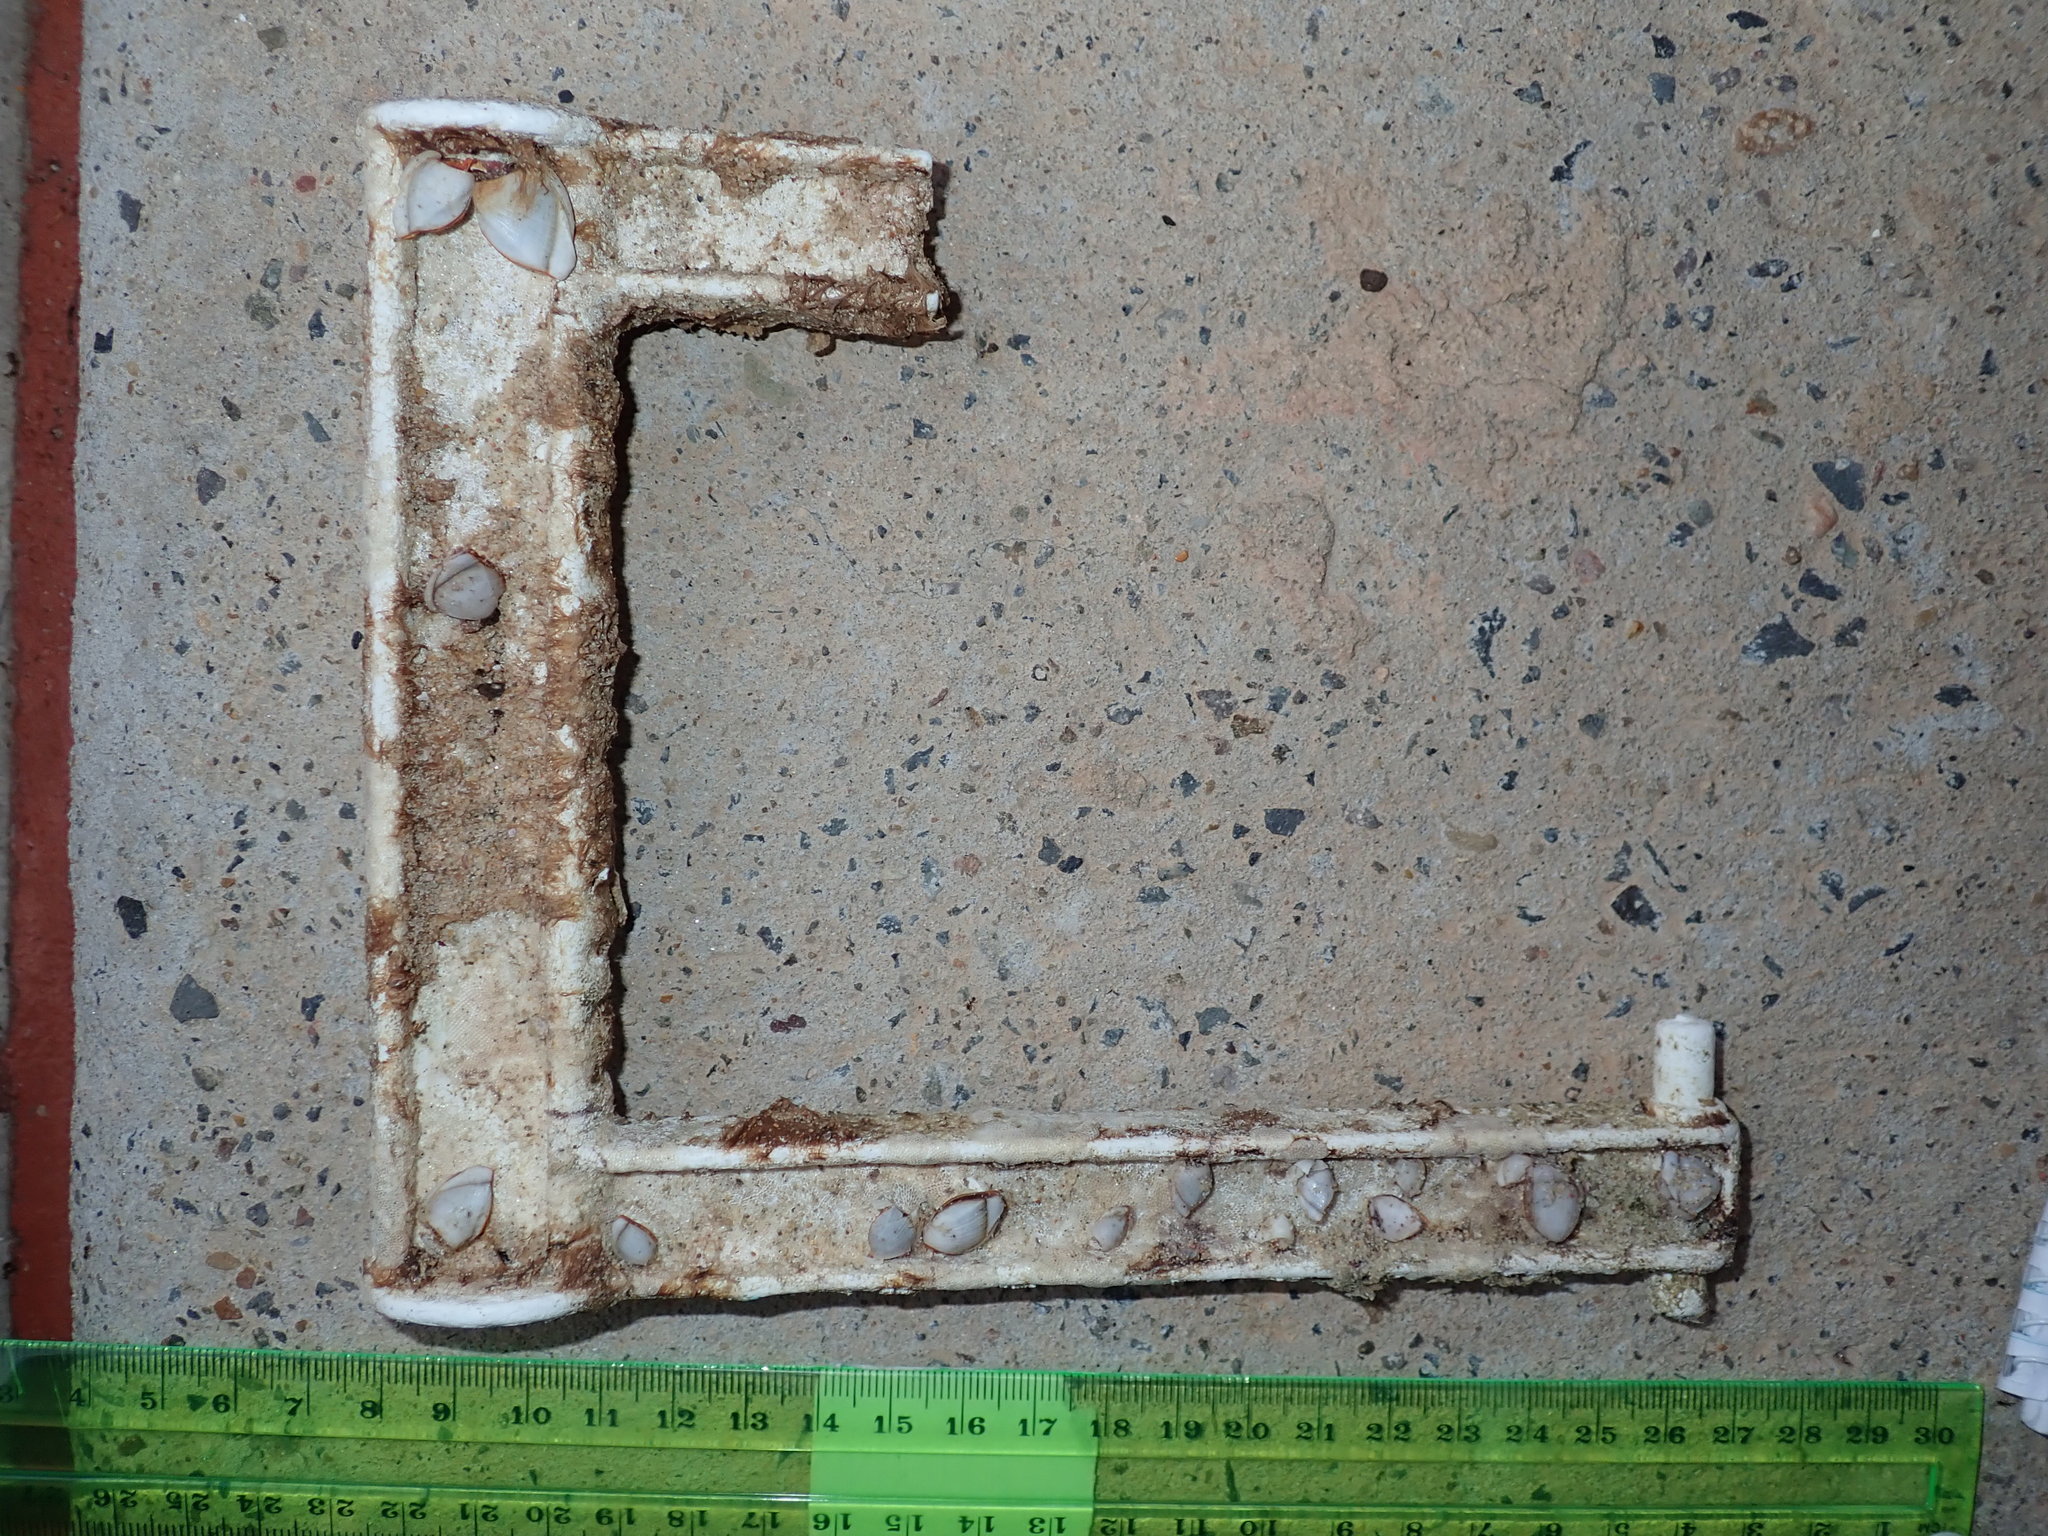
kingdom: Animalia
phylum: Arthropoda
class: Maxillopoda
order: Pedunculata
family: Lepadidae
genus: Lepas
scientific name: Lepas anserifera
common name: Goose barnacle
